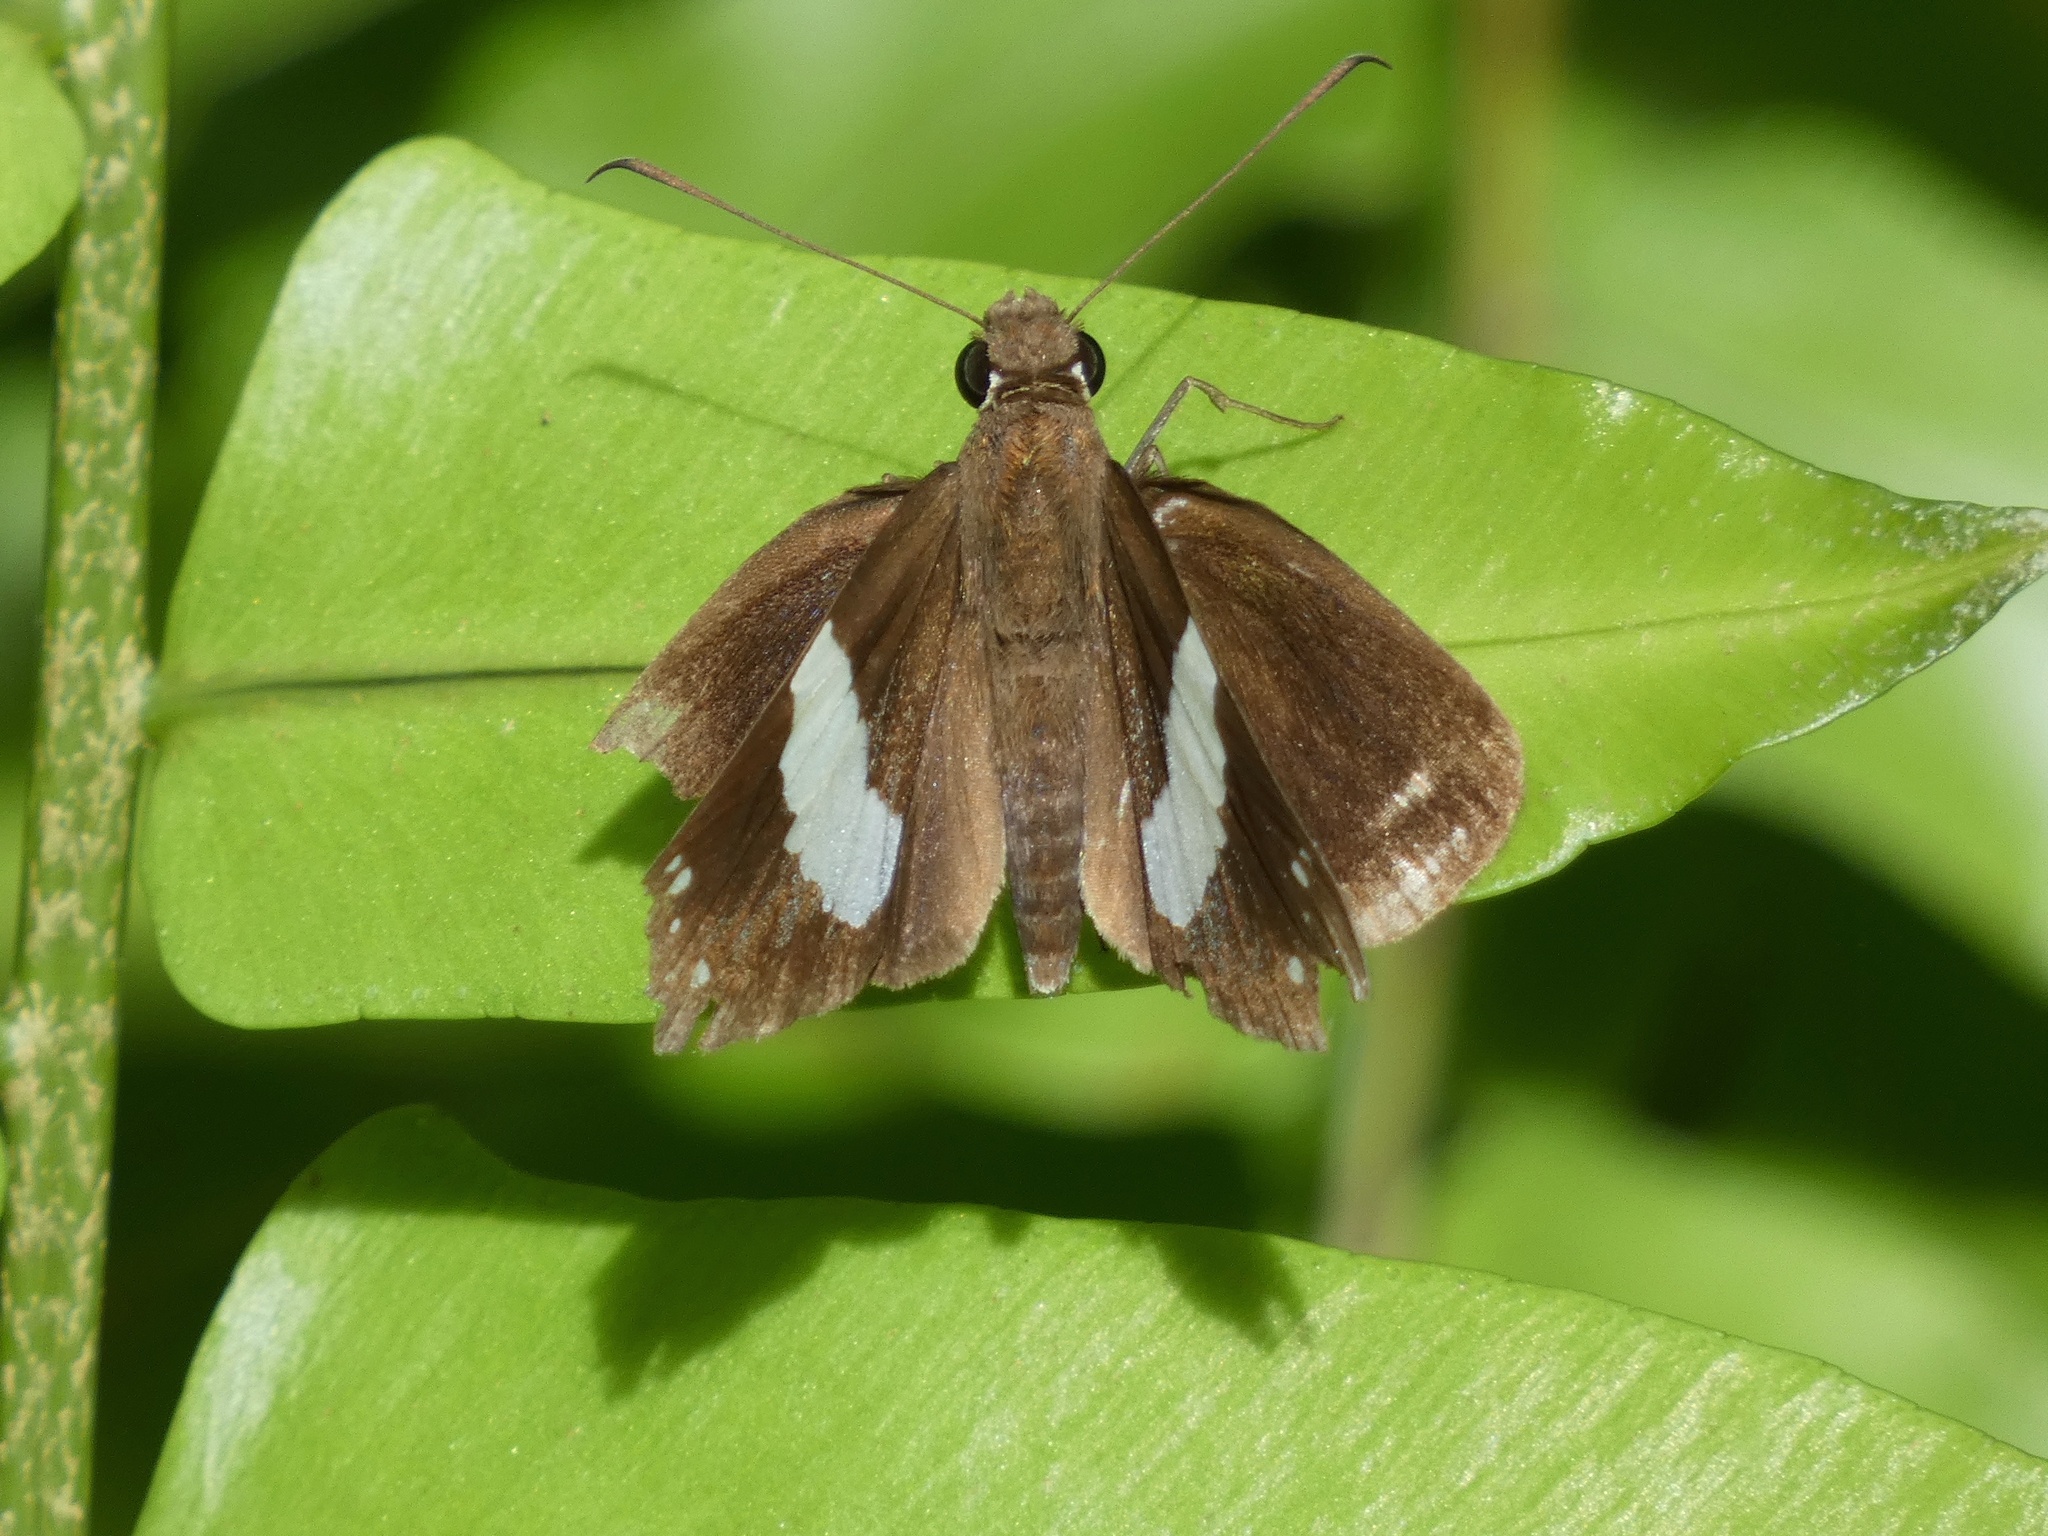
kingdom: Animalia
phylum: Arthropoda
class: Insecta
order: Lepidoptera
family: Hesperiidae
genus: Notocrypta
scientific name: Notocrypta waigensis
